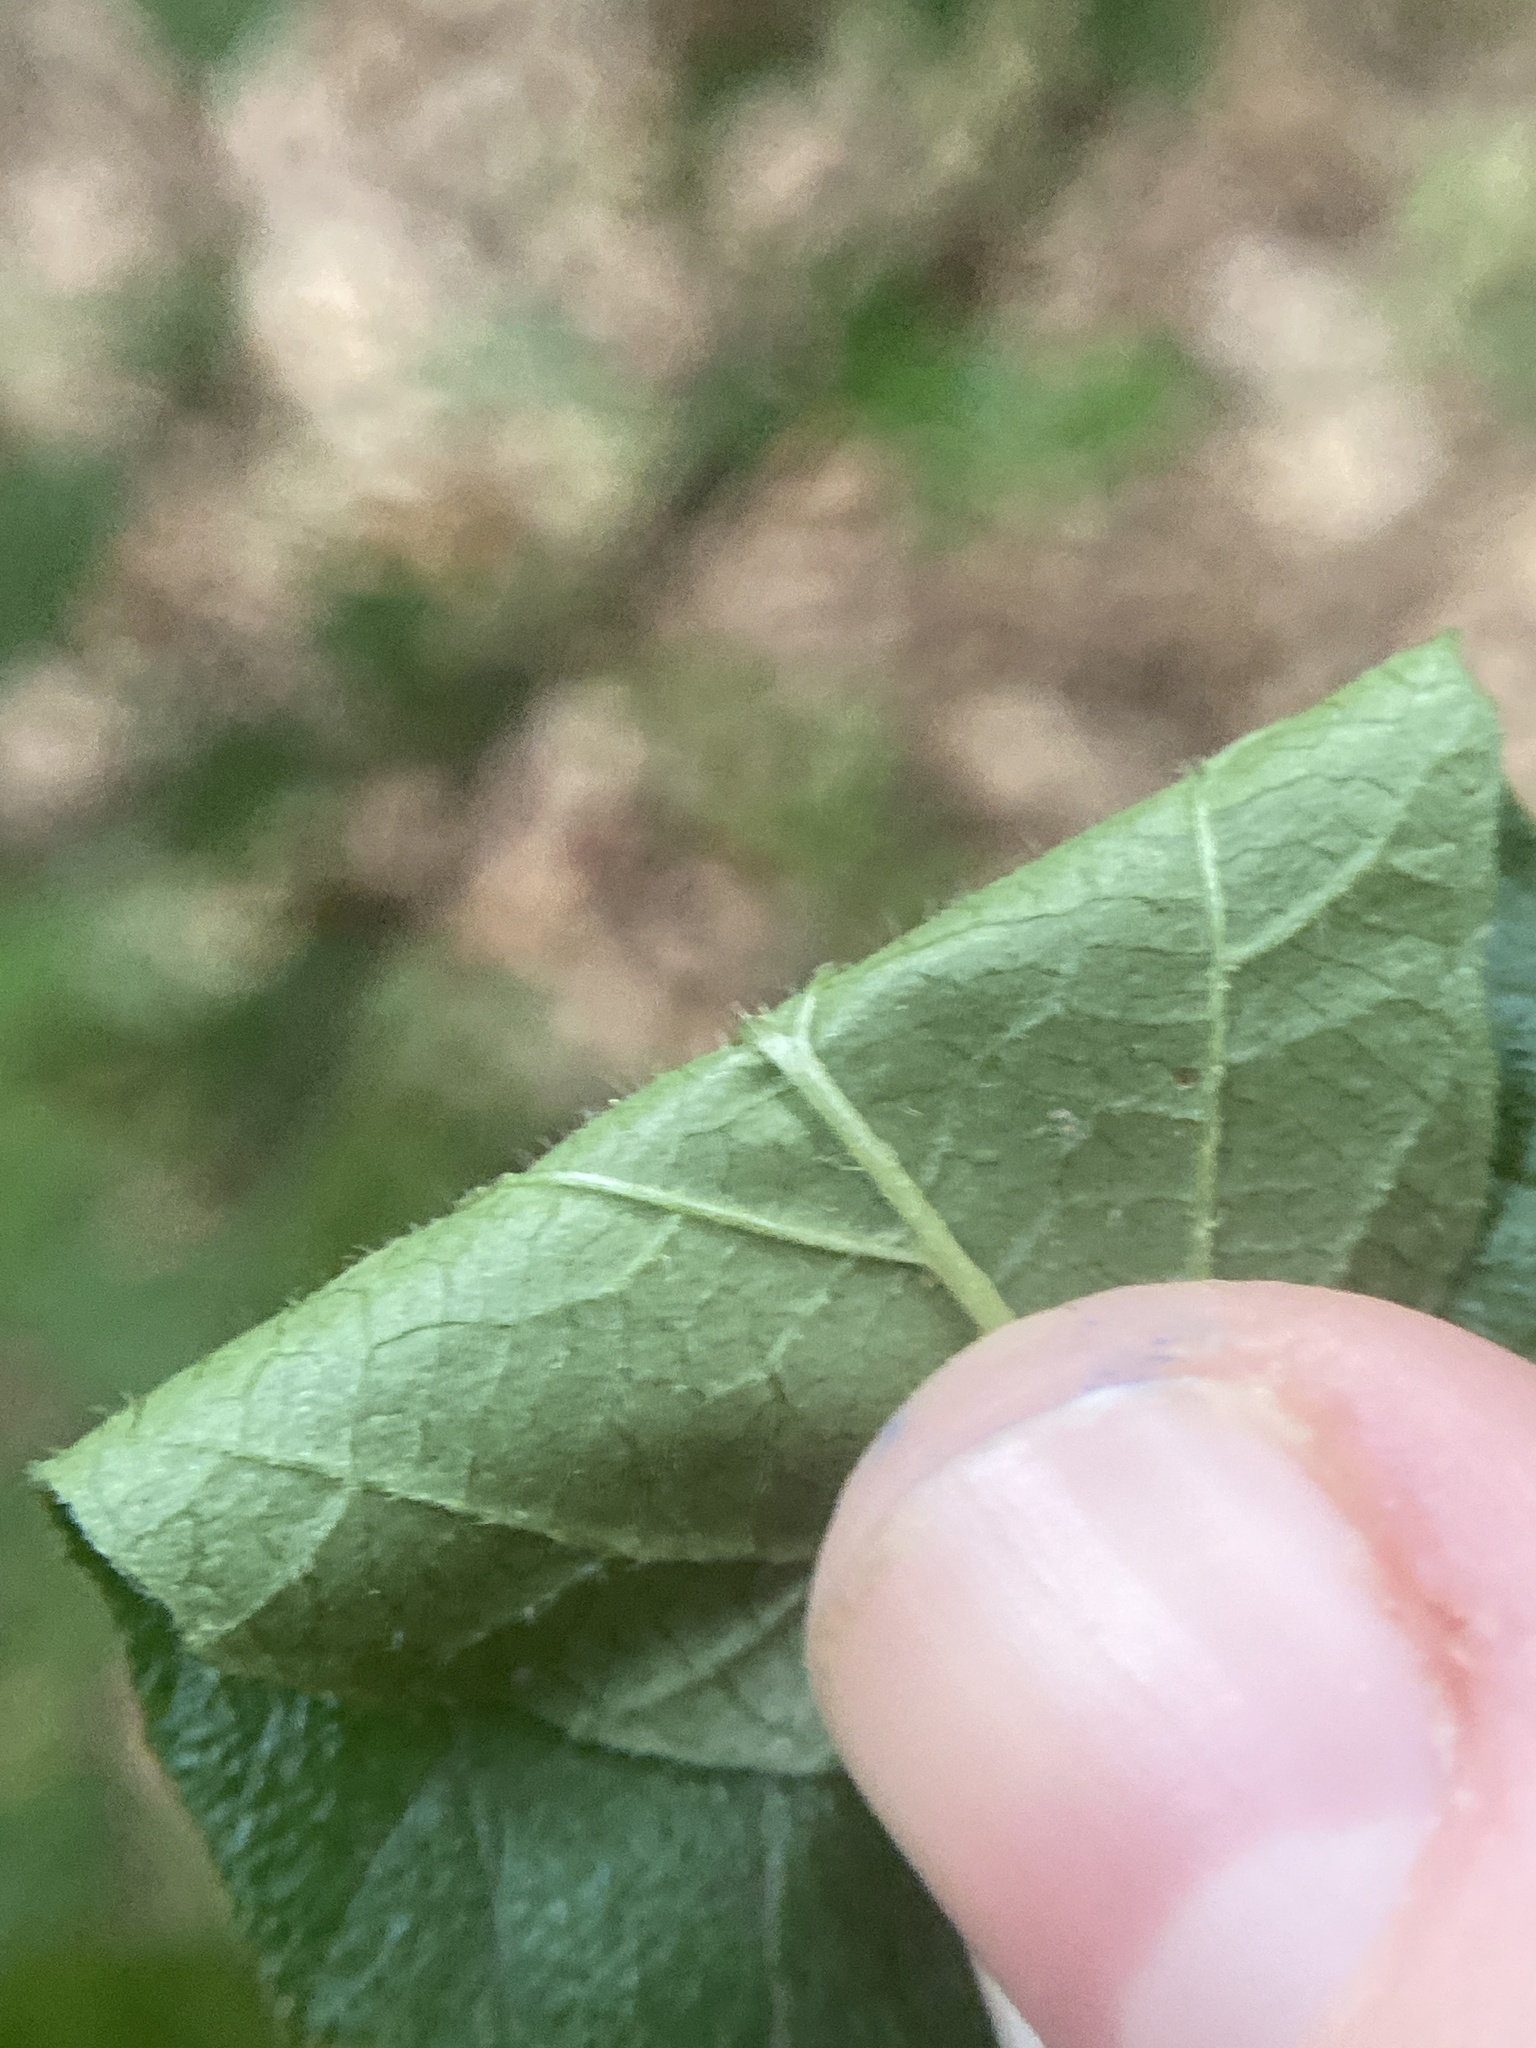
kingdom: Plantae
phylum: Tracheophyta
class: Magnoliopsida
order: Dipsacales
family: Viburnaceae
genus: Viburnum
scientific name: Viburnum dilatatum
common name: Linden arrowwood
